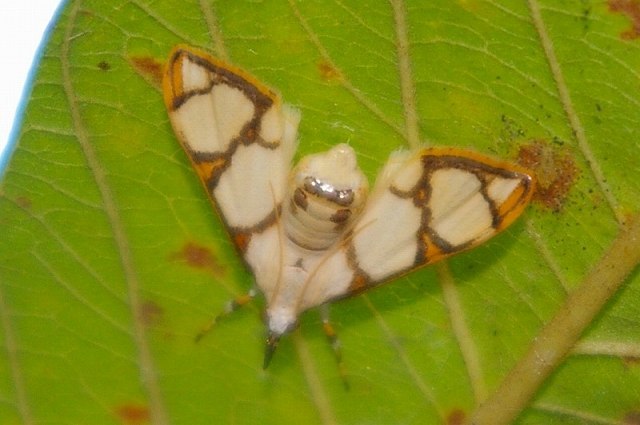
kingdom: Animalia
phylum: Arthropoda
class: Insecta
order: Lepidoptera
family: Crambidae
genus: Cirrhochrista
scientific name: Cirrhochrista kosemponialis
